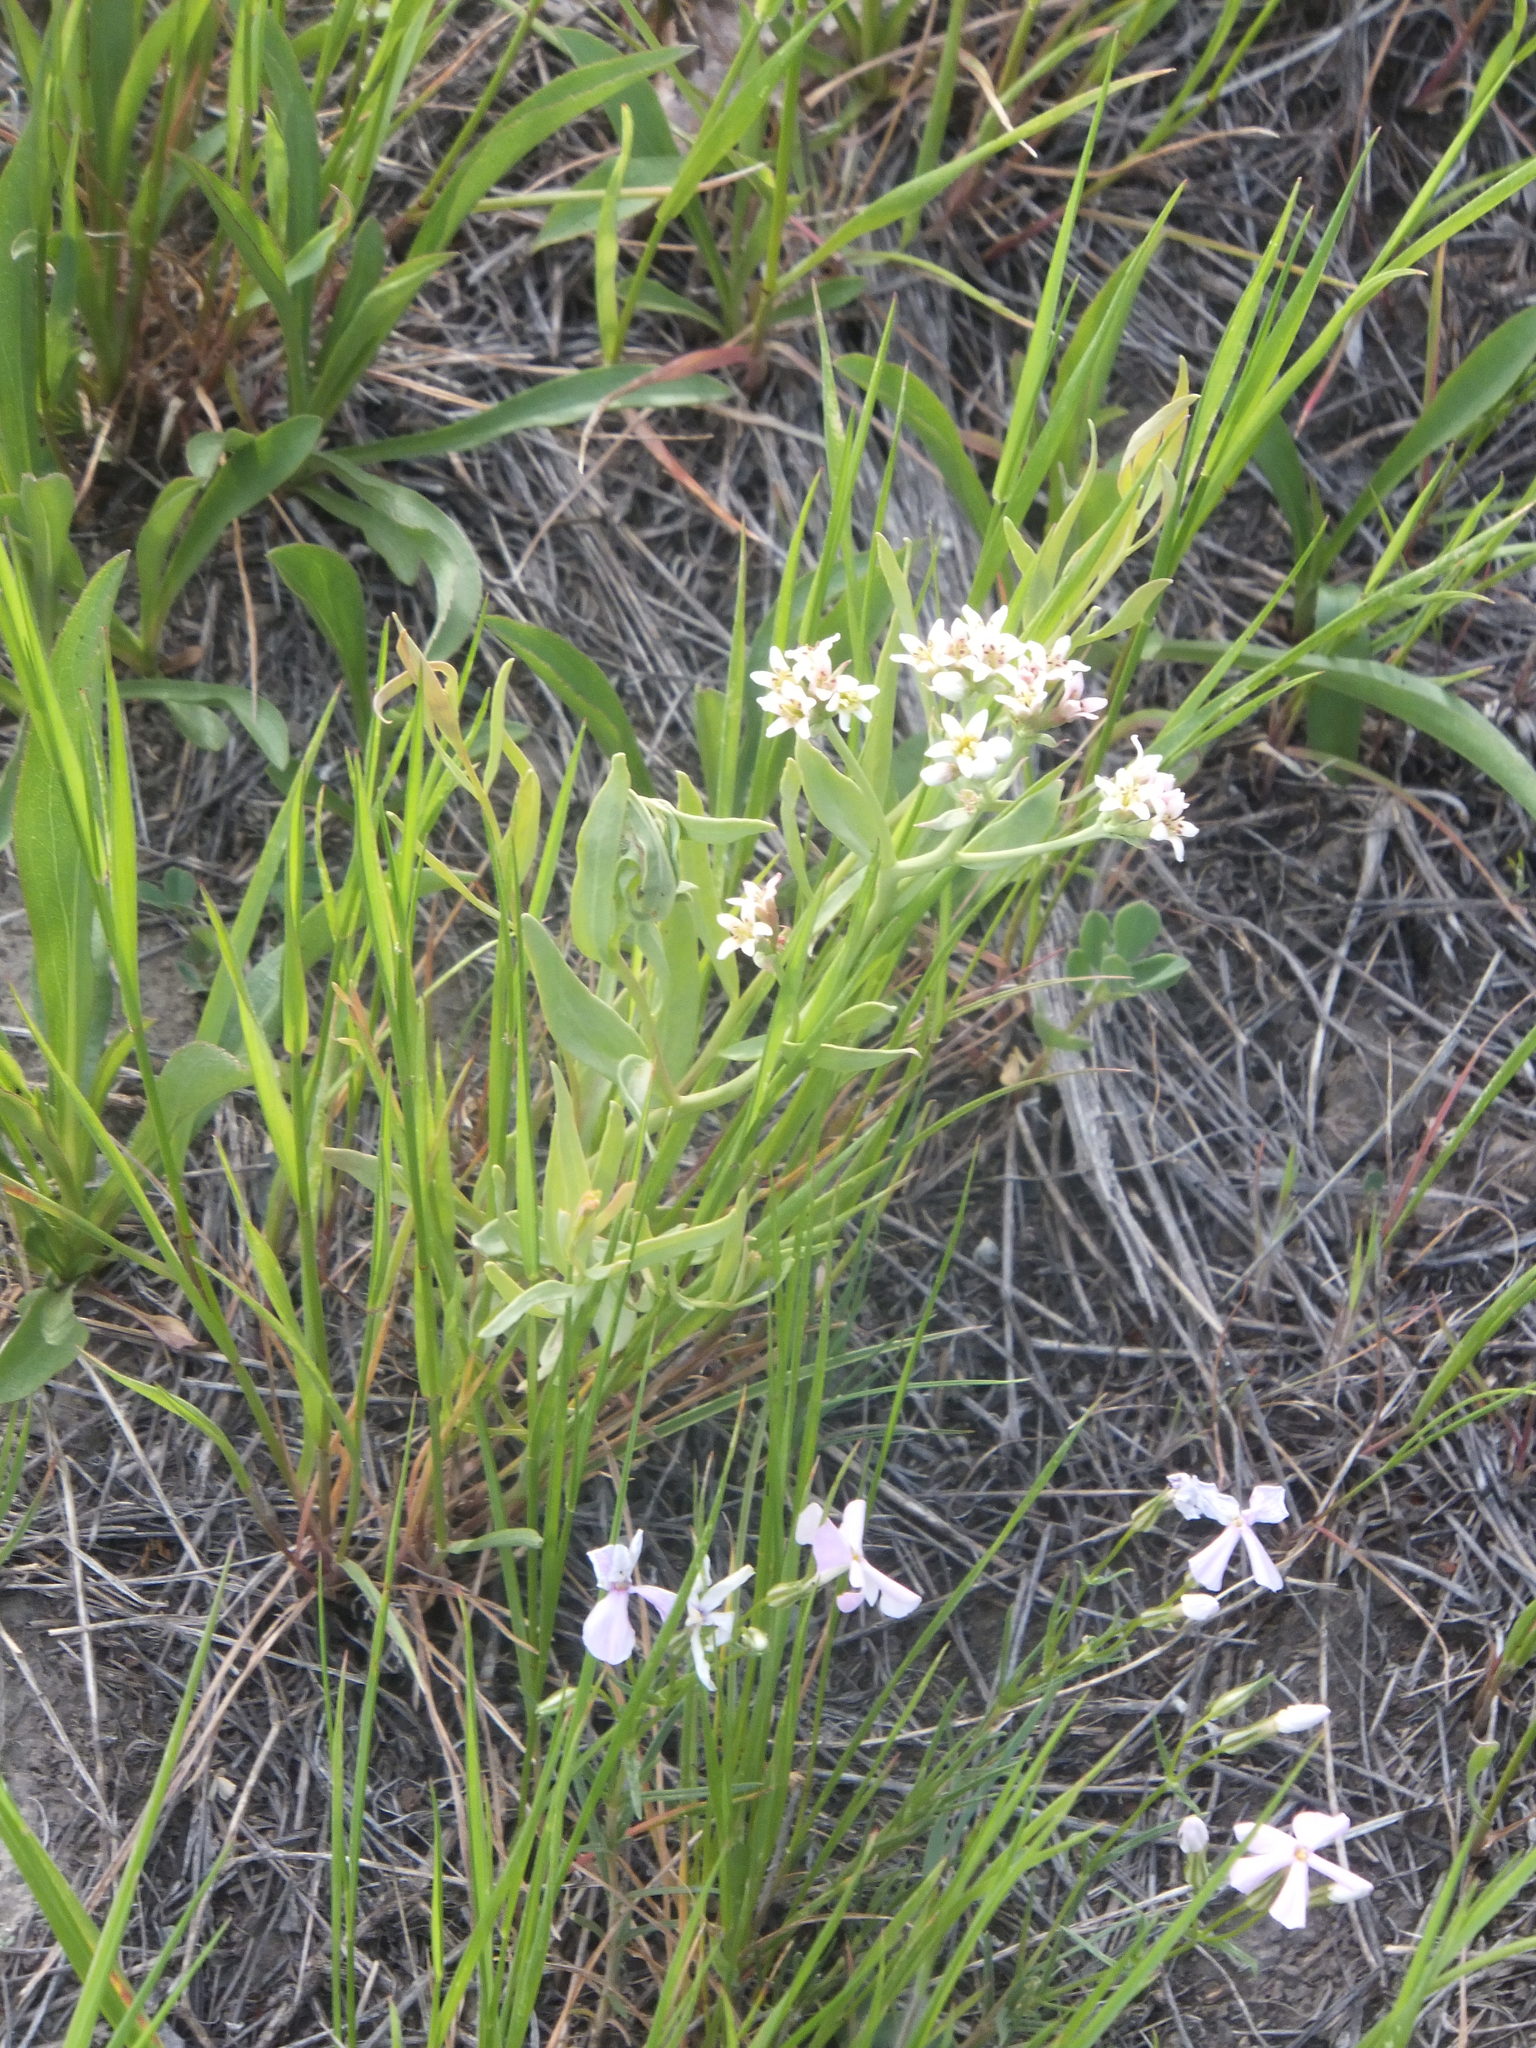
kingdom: Plantae
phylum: Tracheophyta
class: Magnoliopsida
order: Santalales
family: Comandraceae
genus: Comandra
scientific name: Comandra umbellata
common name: Bastard toadflax
